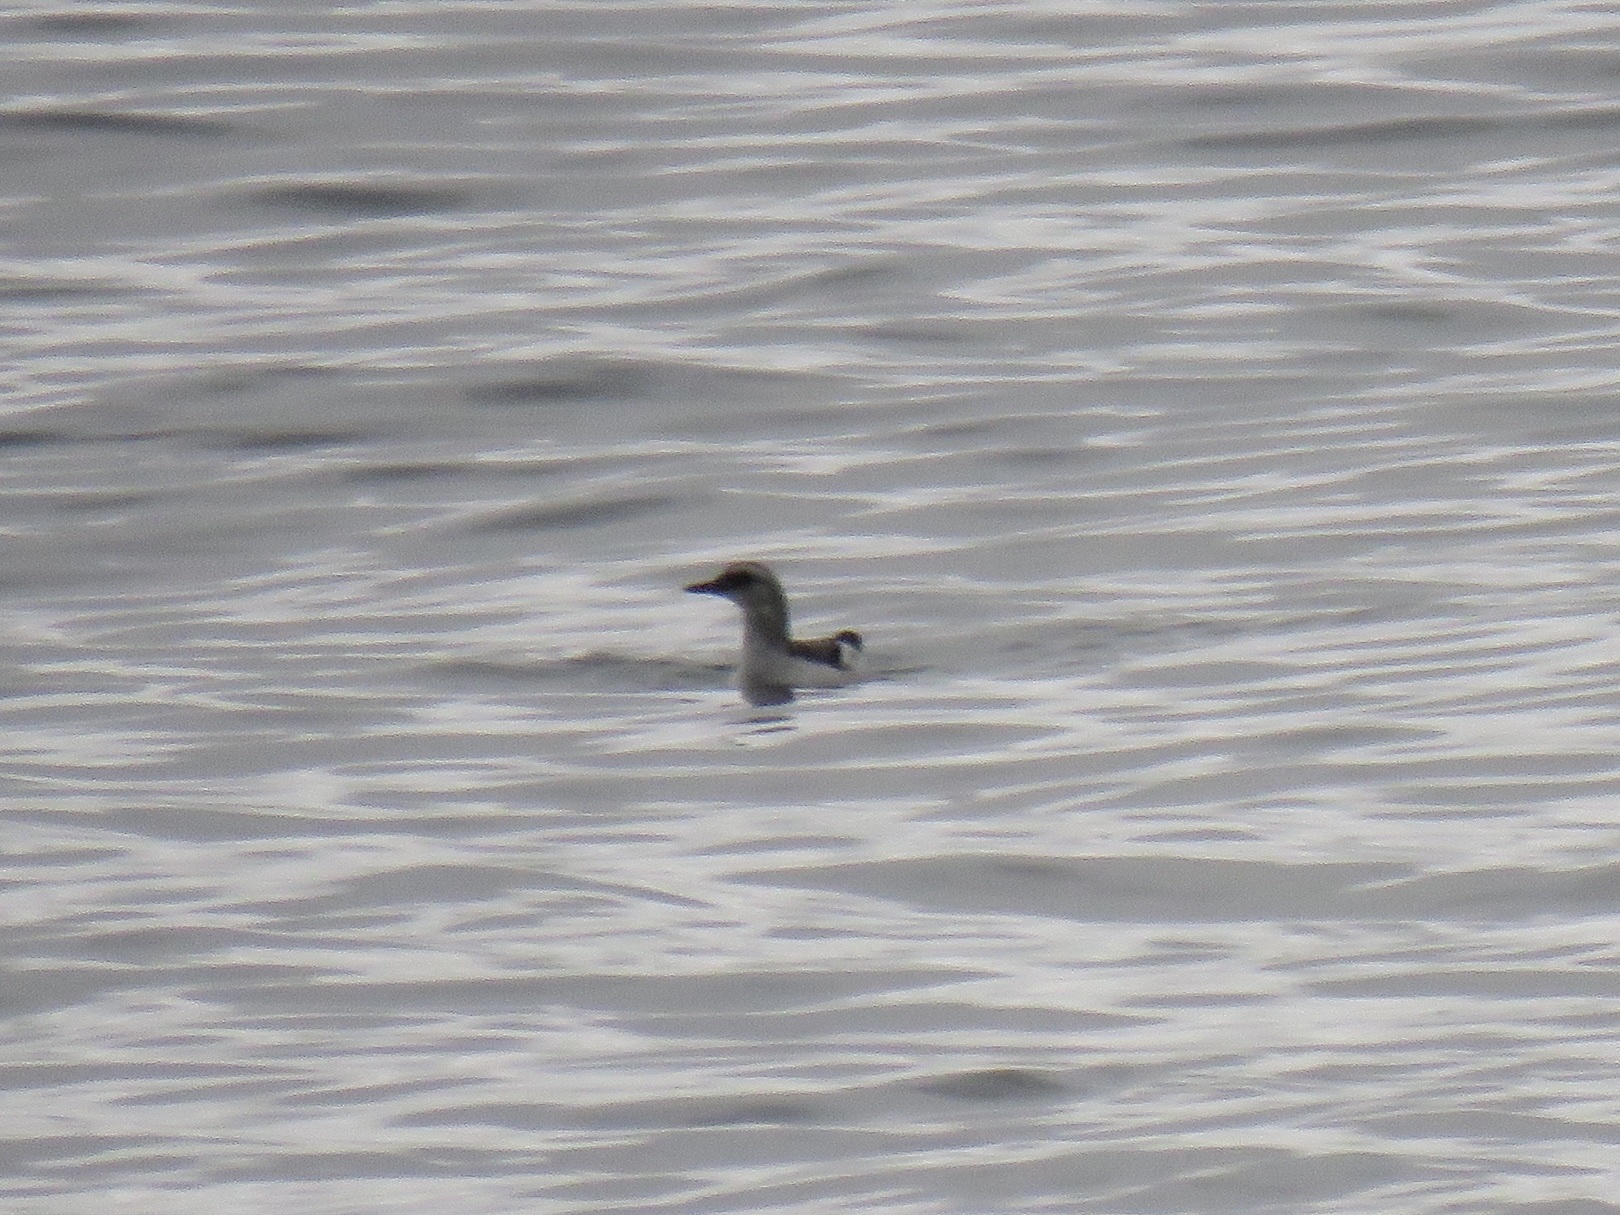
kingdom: Animalia
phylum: Chordata
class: Aves
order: Charadriiformes
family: Alcidae
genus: Cepphus
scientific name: Cepphus columba
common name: Pigeon guillemot
